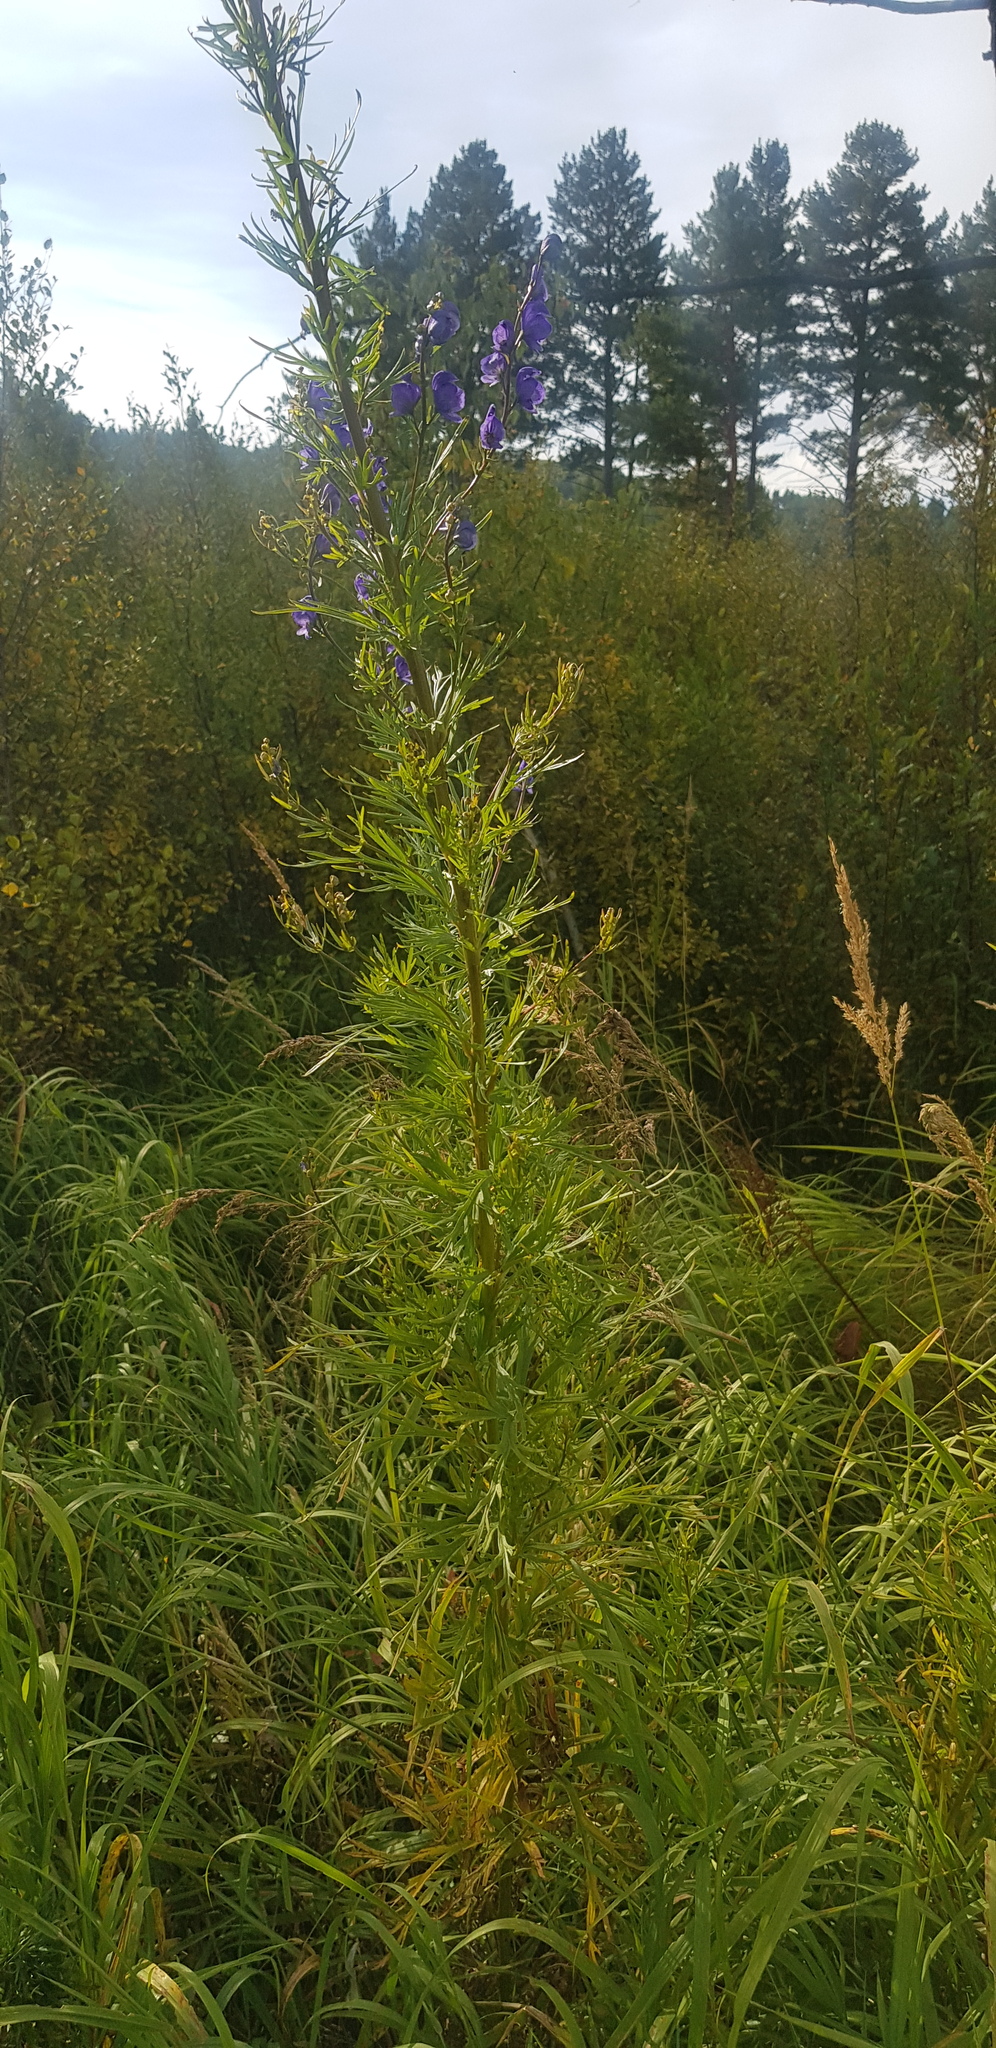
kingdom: Plantae
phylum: Tracheophyta
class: Magnoliopsida
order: Ranunculales
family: Ranunculaceae
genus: Aconitum
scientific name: Aconitum turczaninowii
